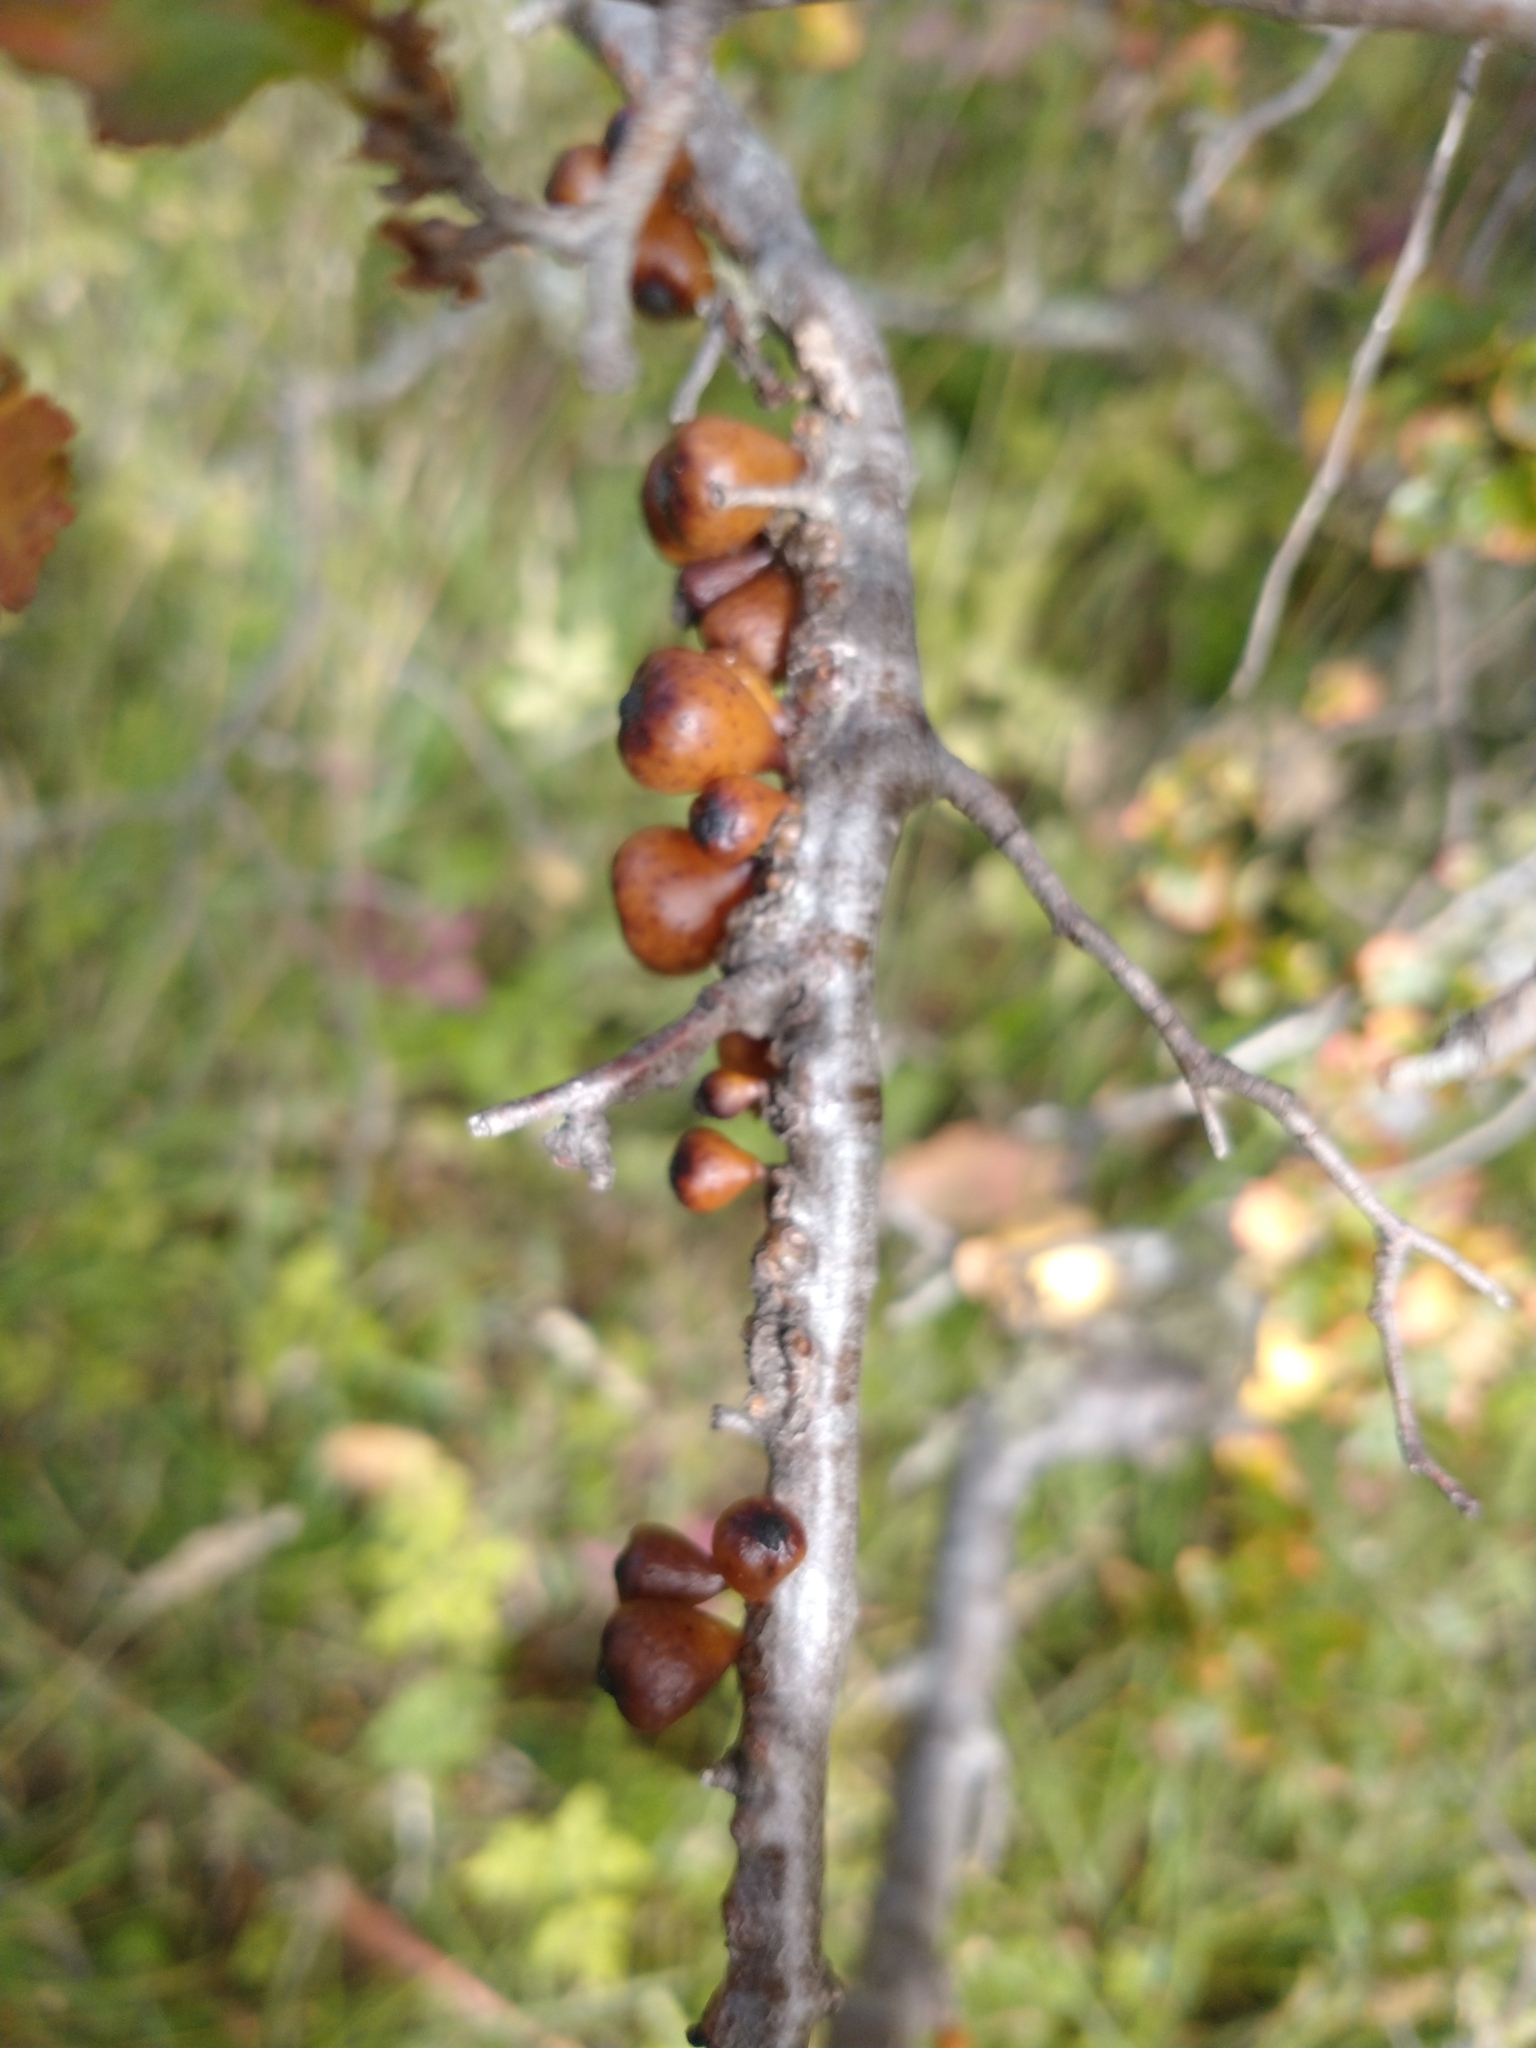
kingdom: Fungi
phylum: Ascomycota
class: Leotiomycetes
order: Cyttariales
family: Cyttariaceae
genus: Cyttaria
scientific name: Cyttaria hookeri
